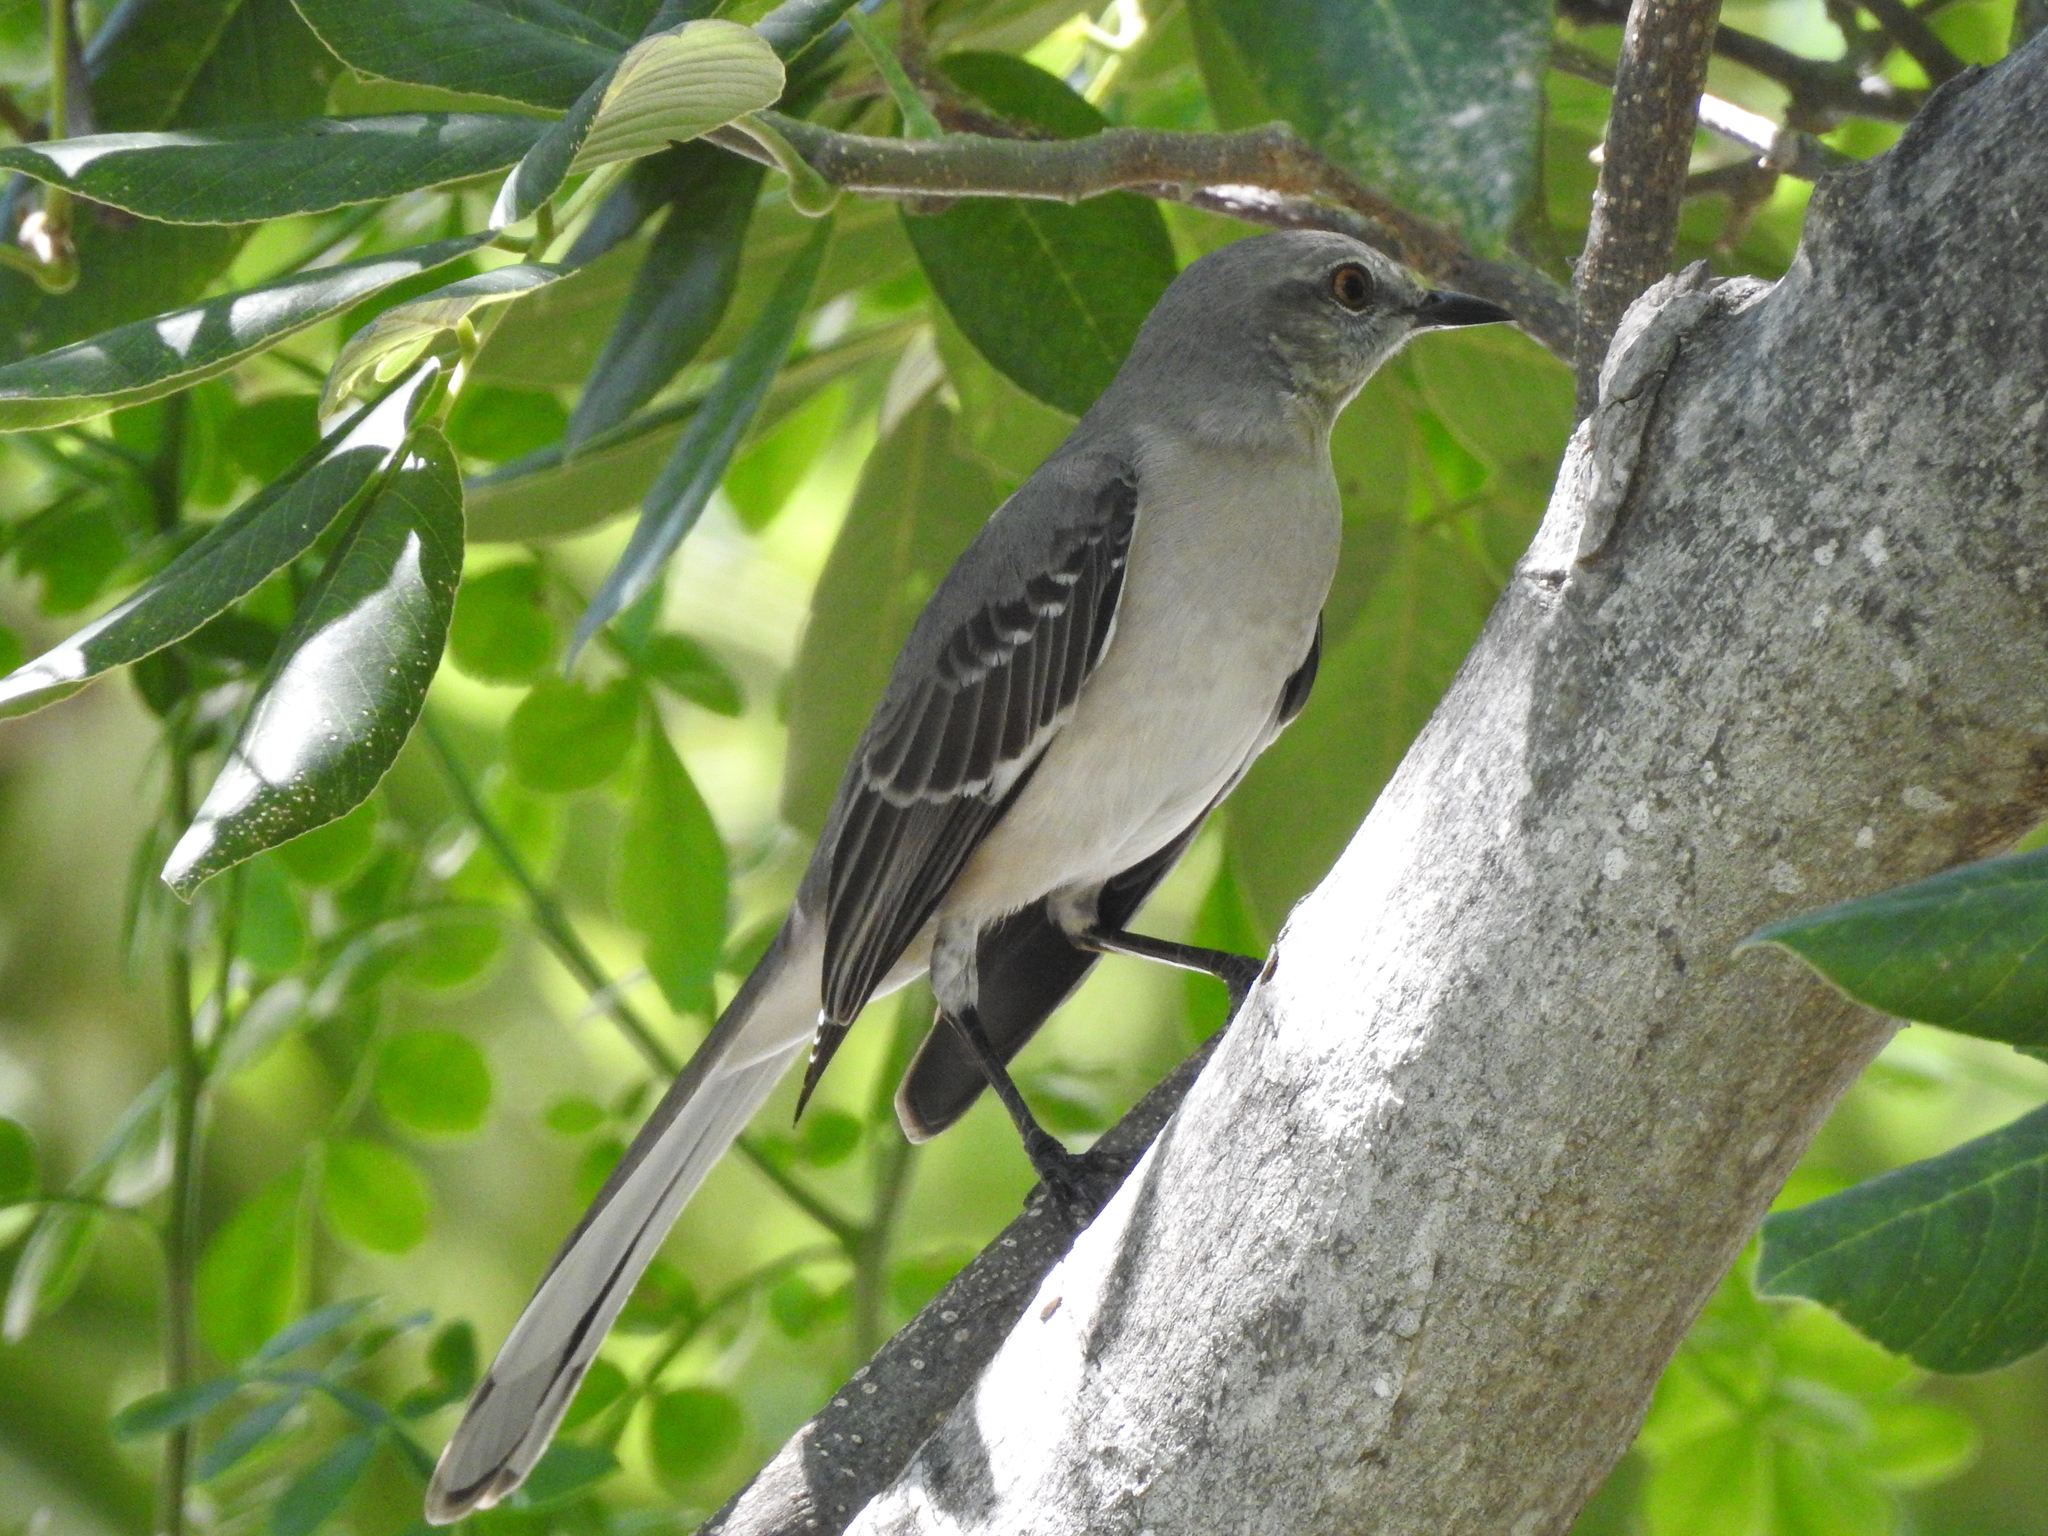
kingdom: Animalia
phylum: Chordata
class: Aves
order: Passeriformes
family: Mimidae
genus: Mimus
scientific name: Mimus polyglottos
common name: Northern mockingbird
